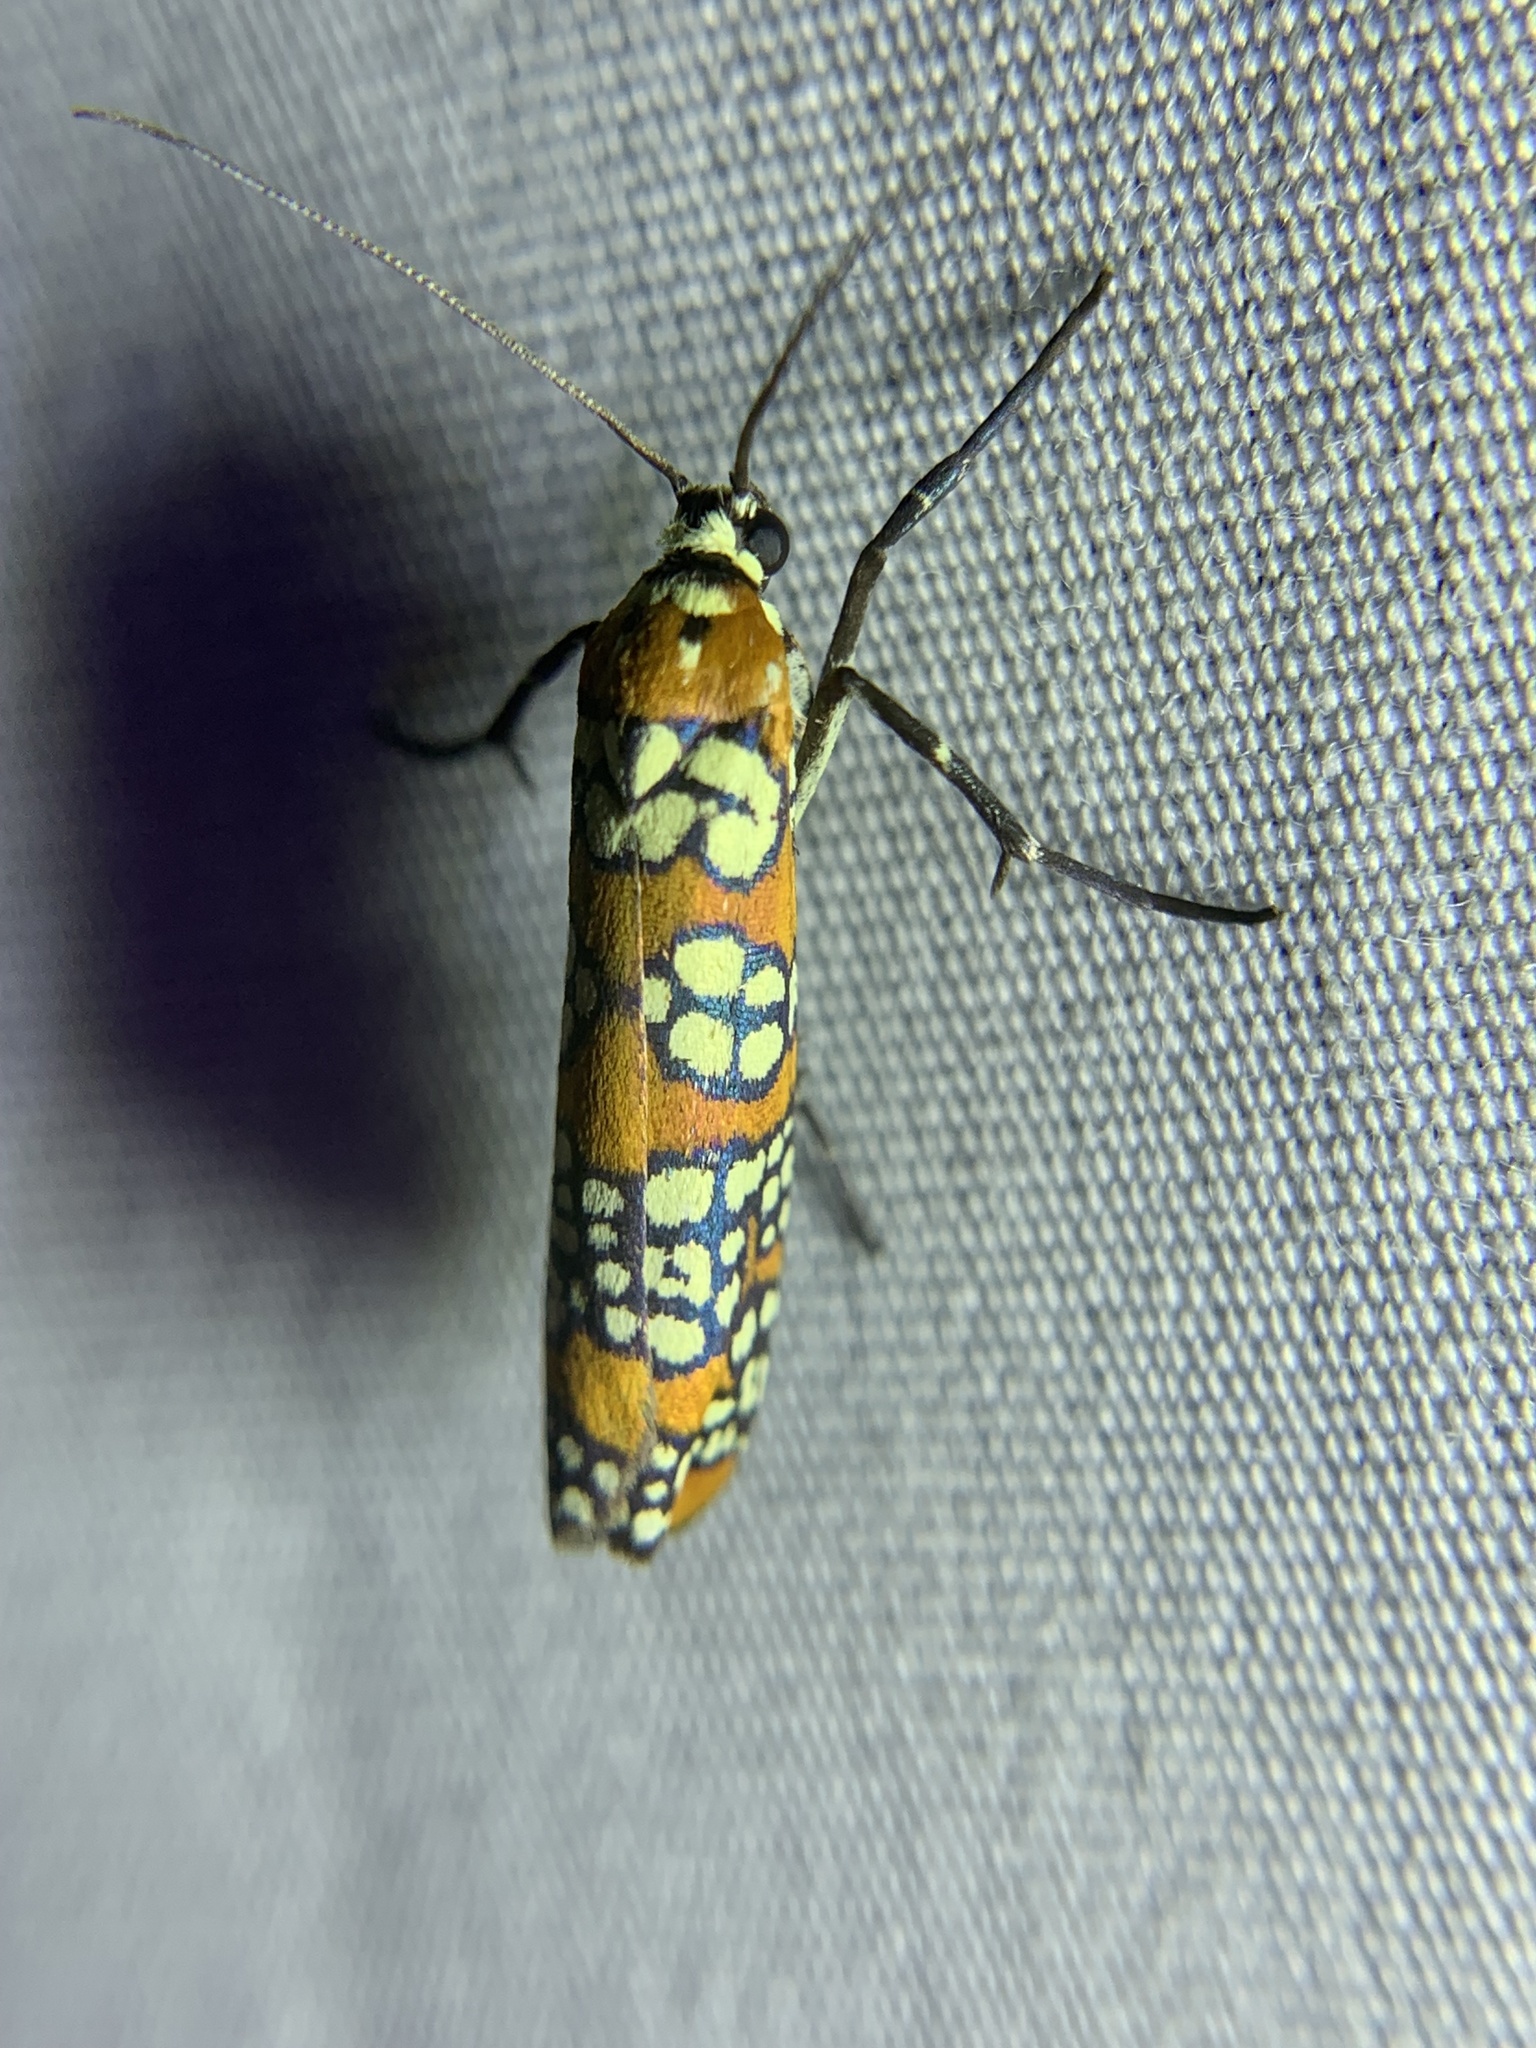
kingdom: Animalia
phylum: Arthropoda
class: Insecta
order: Lepidoptera
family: Attevidae
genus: Atteva
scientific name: Atteva punctella
